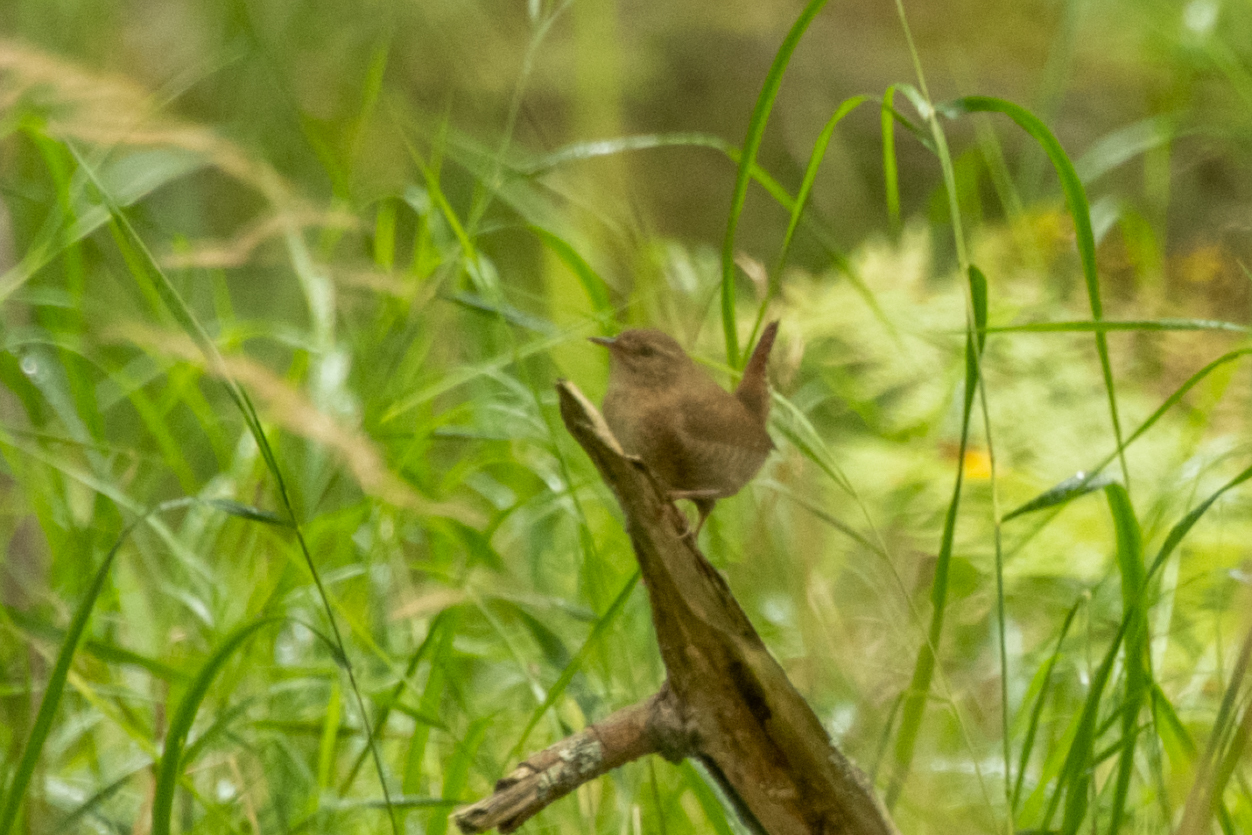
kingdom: Animalia
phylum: Chordata
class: Aves
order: Passeriformes
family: Troglodytidae
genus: Troglodytes
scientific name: Troglodytes troglodytes
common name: Eurasian wren
